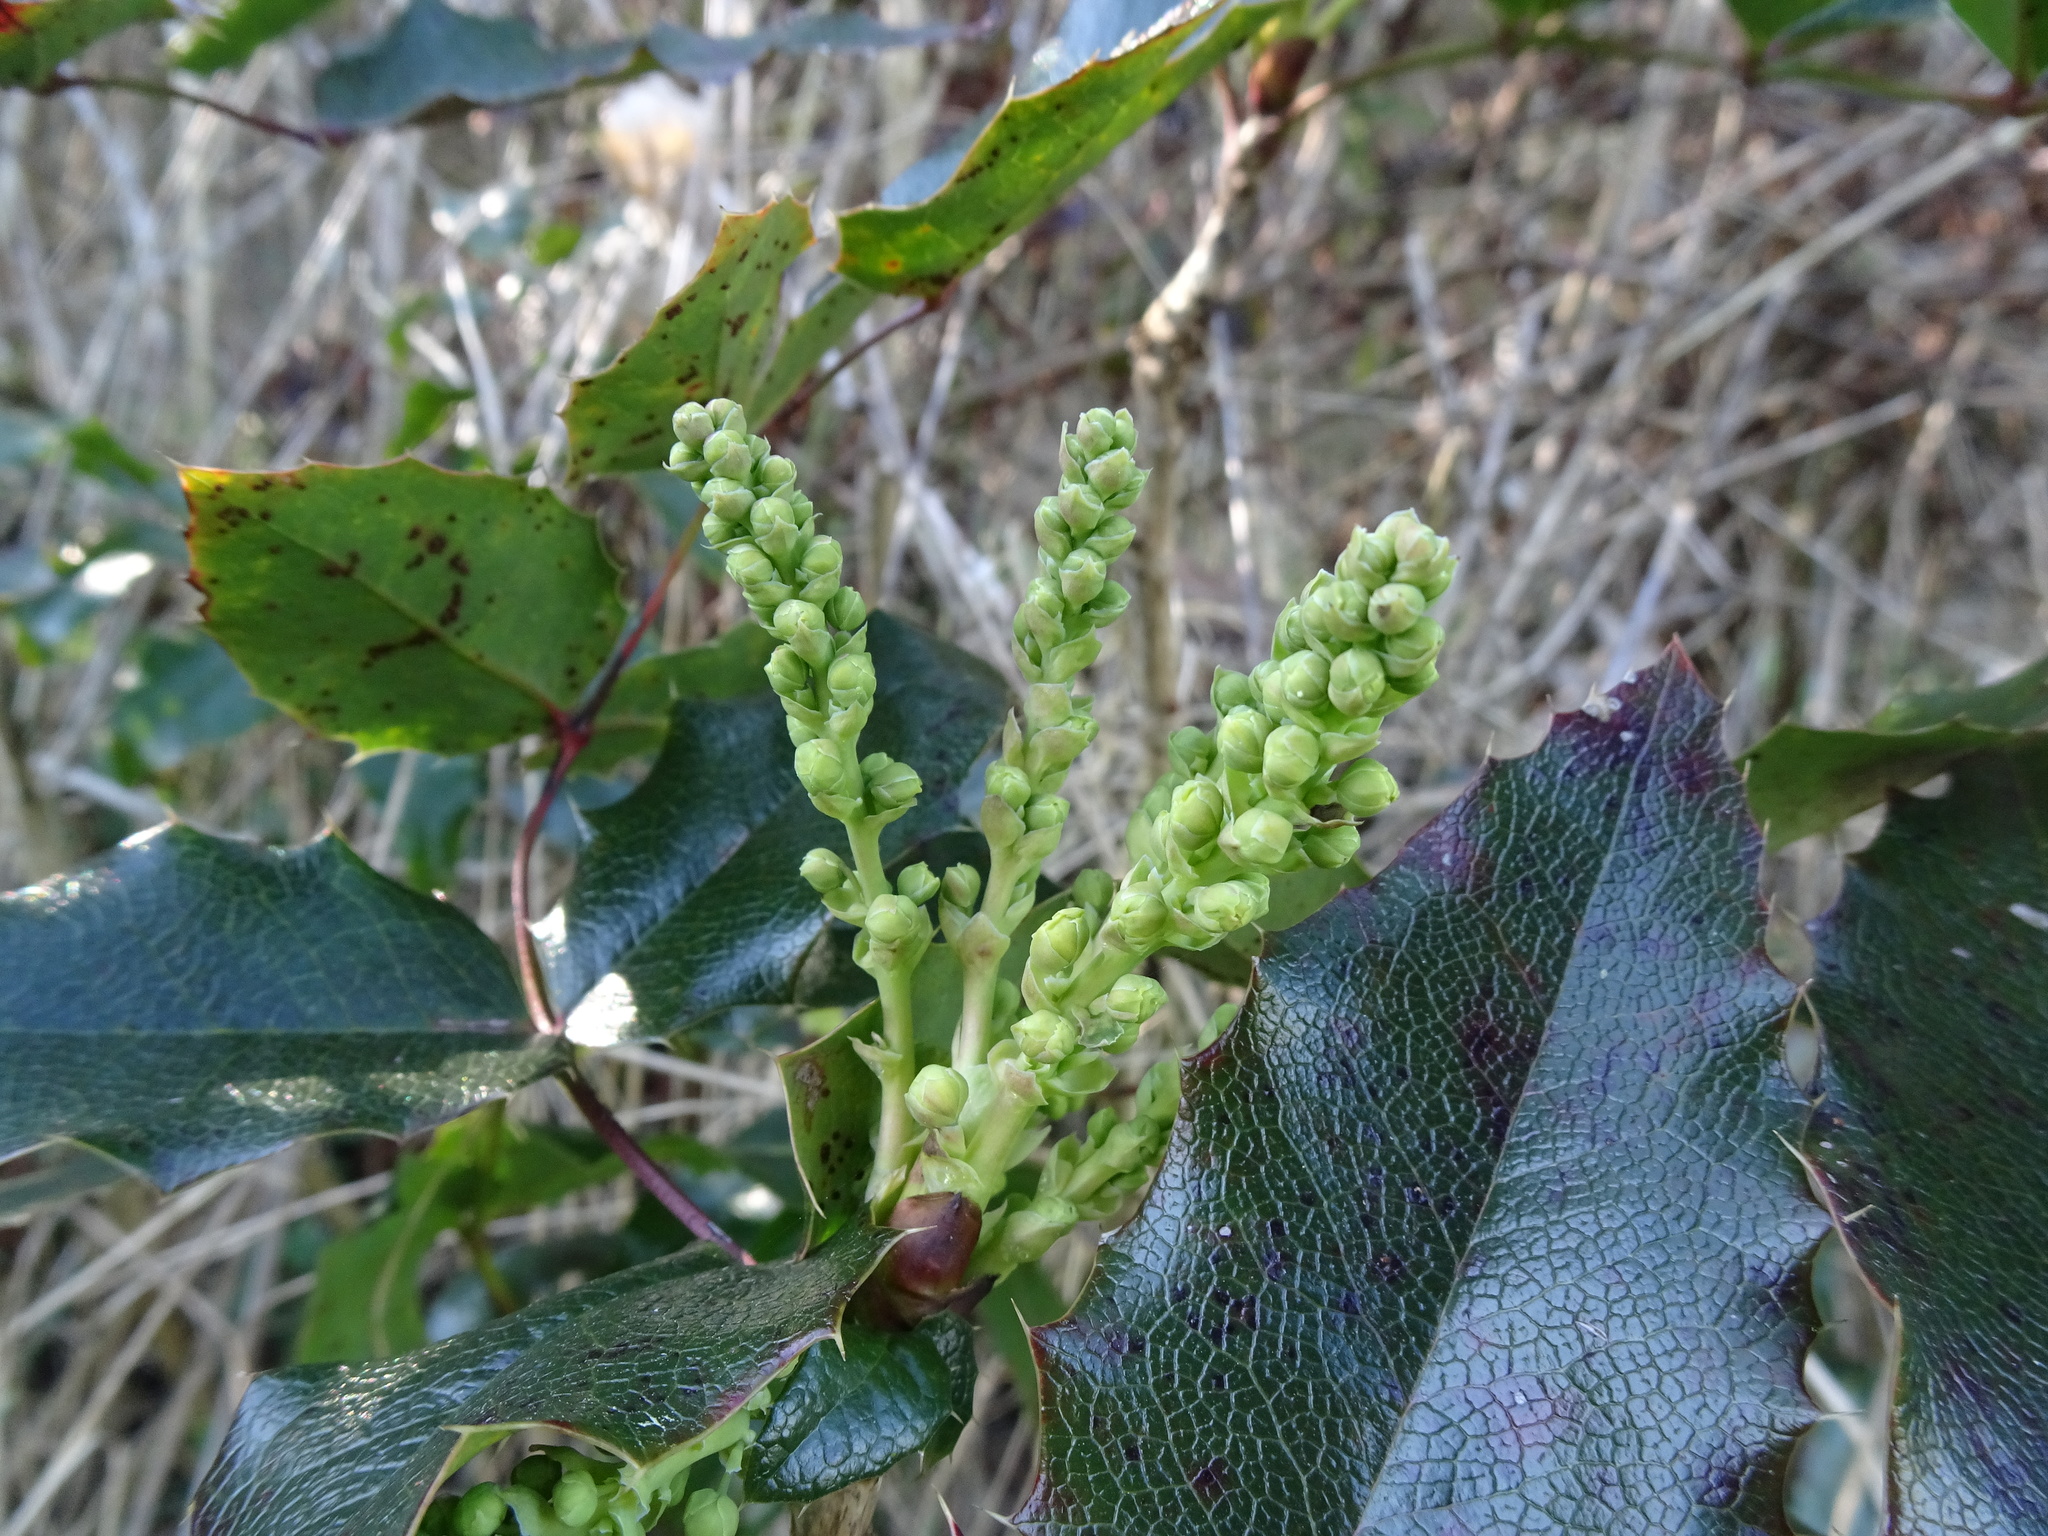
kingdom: Plantae
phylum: Tracheophyta
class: Magnoliopsida
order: Ranunculales
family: Berberidaceae
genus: Mahonia
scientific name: Mahonia aquifolium
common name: Oregon-grape
